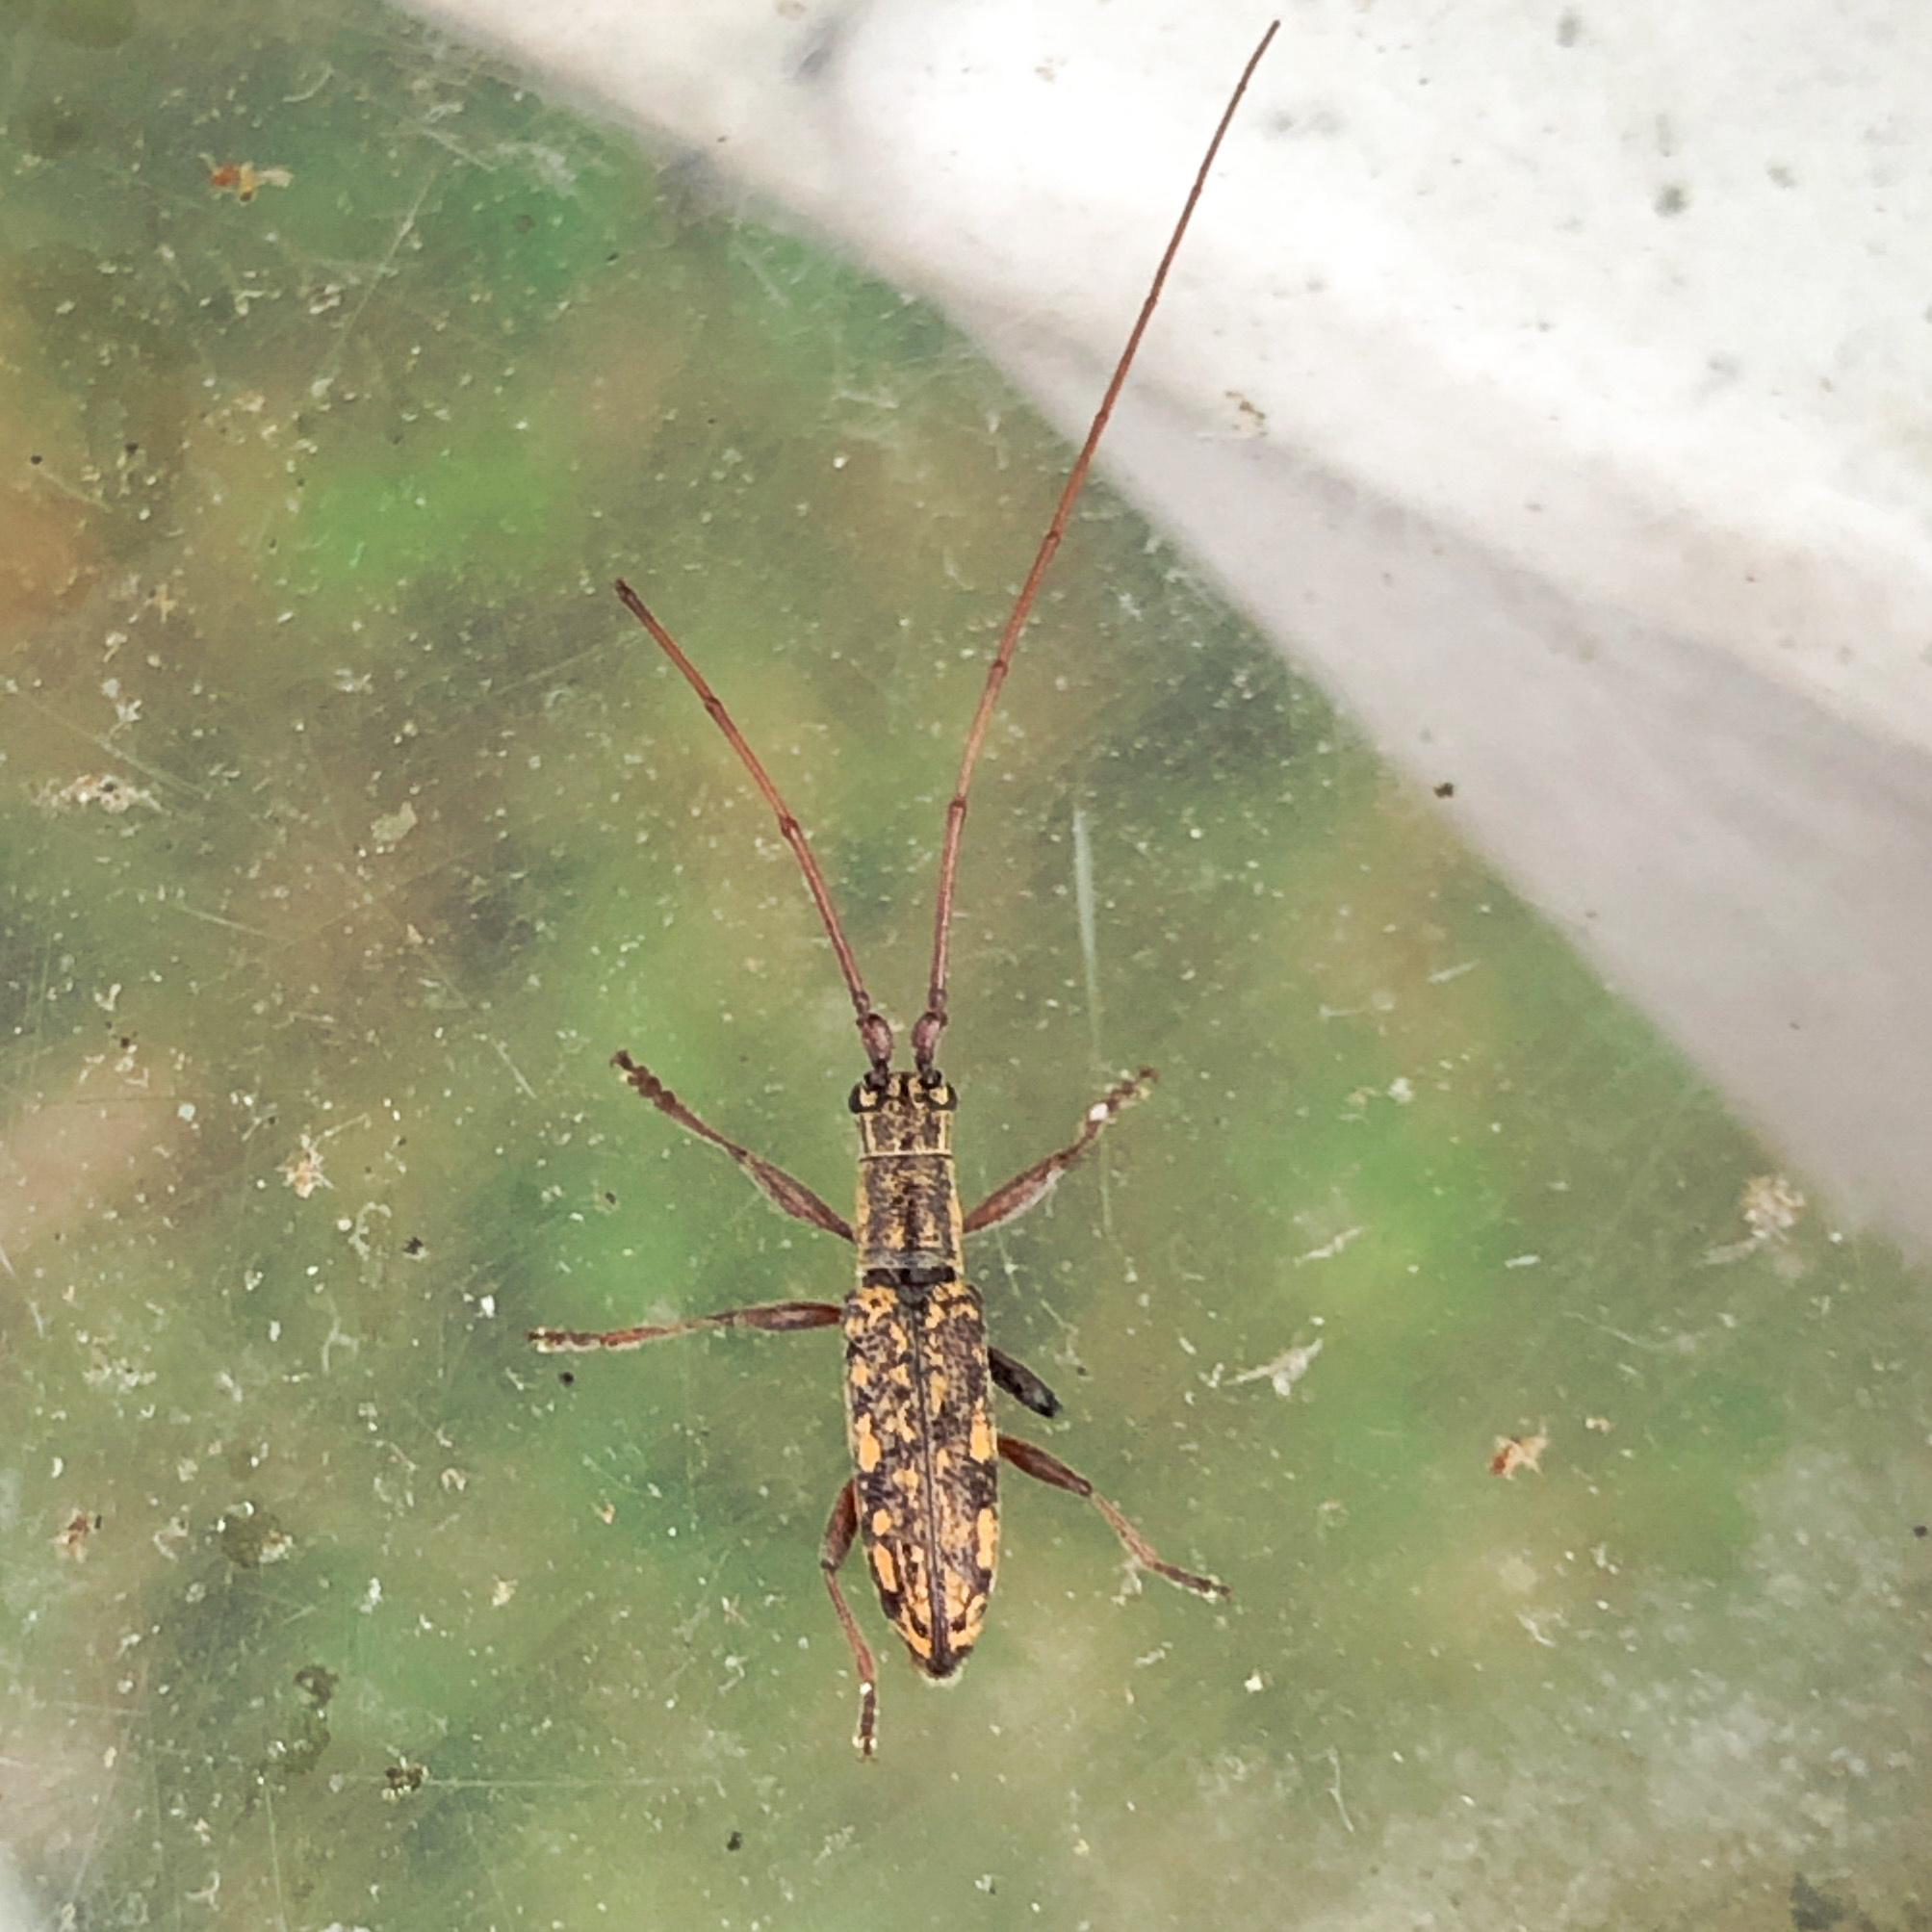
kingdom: Animalia
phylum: Arthropoda
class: Insecta
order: Coleoptera
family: Cerambycidae
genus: Dorcaschema
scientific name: Dorcaschema alternatum
